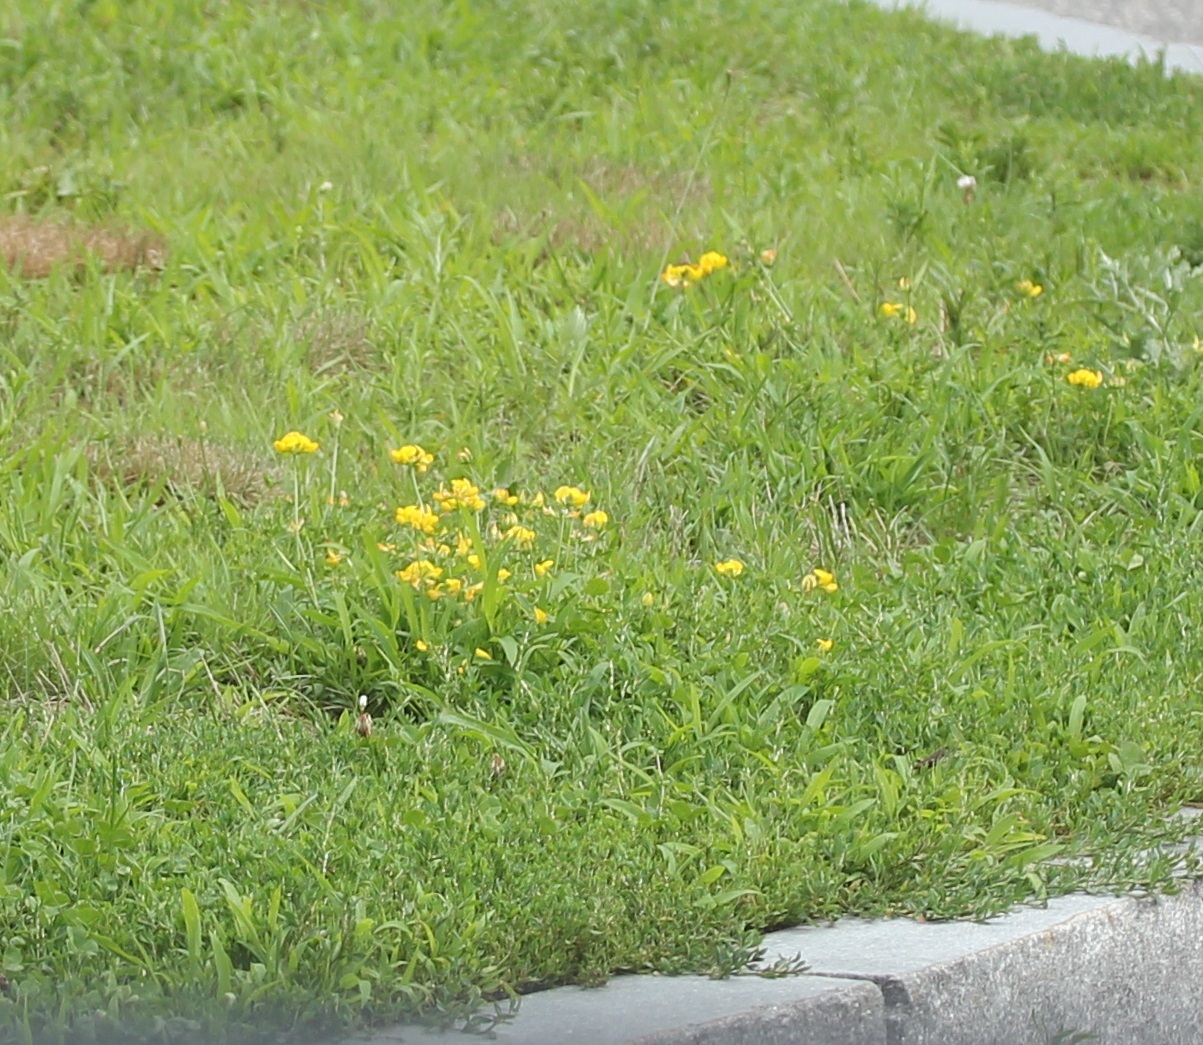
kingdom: Plantae
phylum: Tracheophyta
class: Magnoliopsida
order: Fabales
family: Fabaceae
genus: Lotus
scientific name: Lotus corniculatus
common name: Common bird's-foot-trefoil
